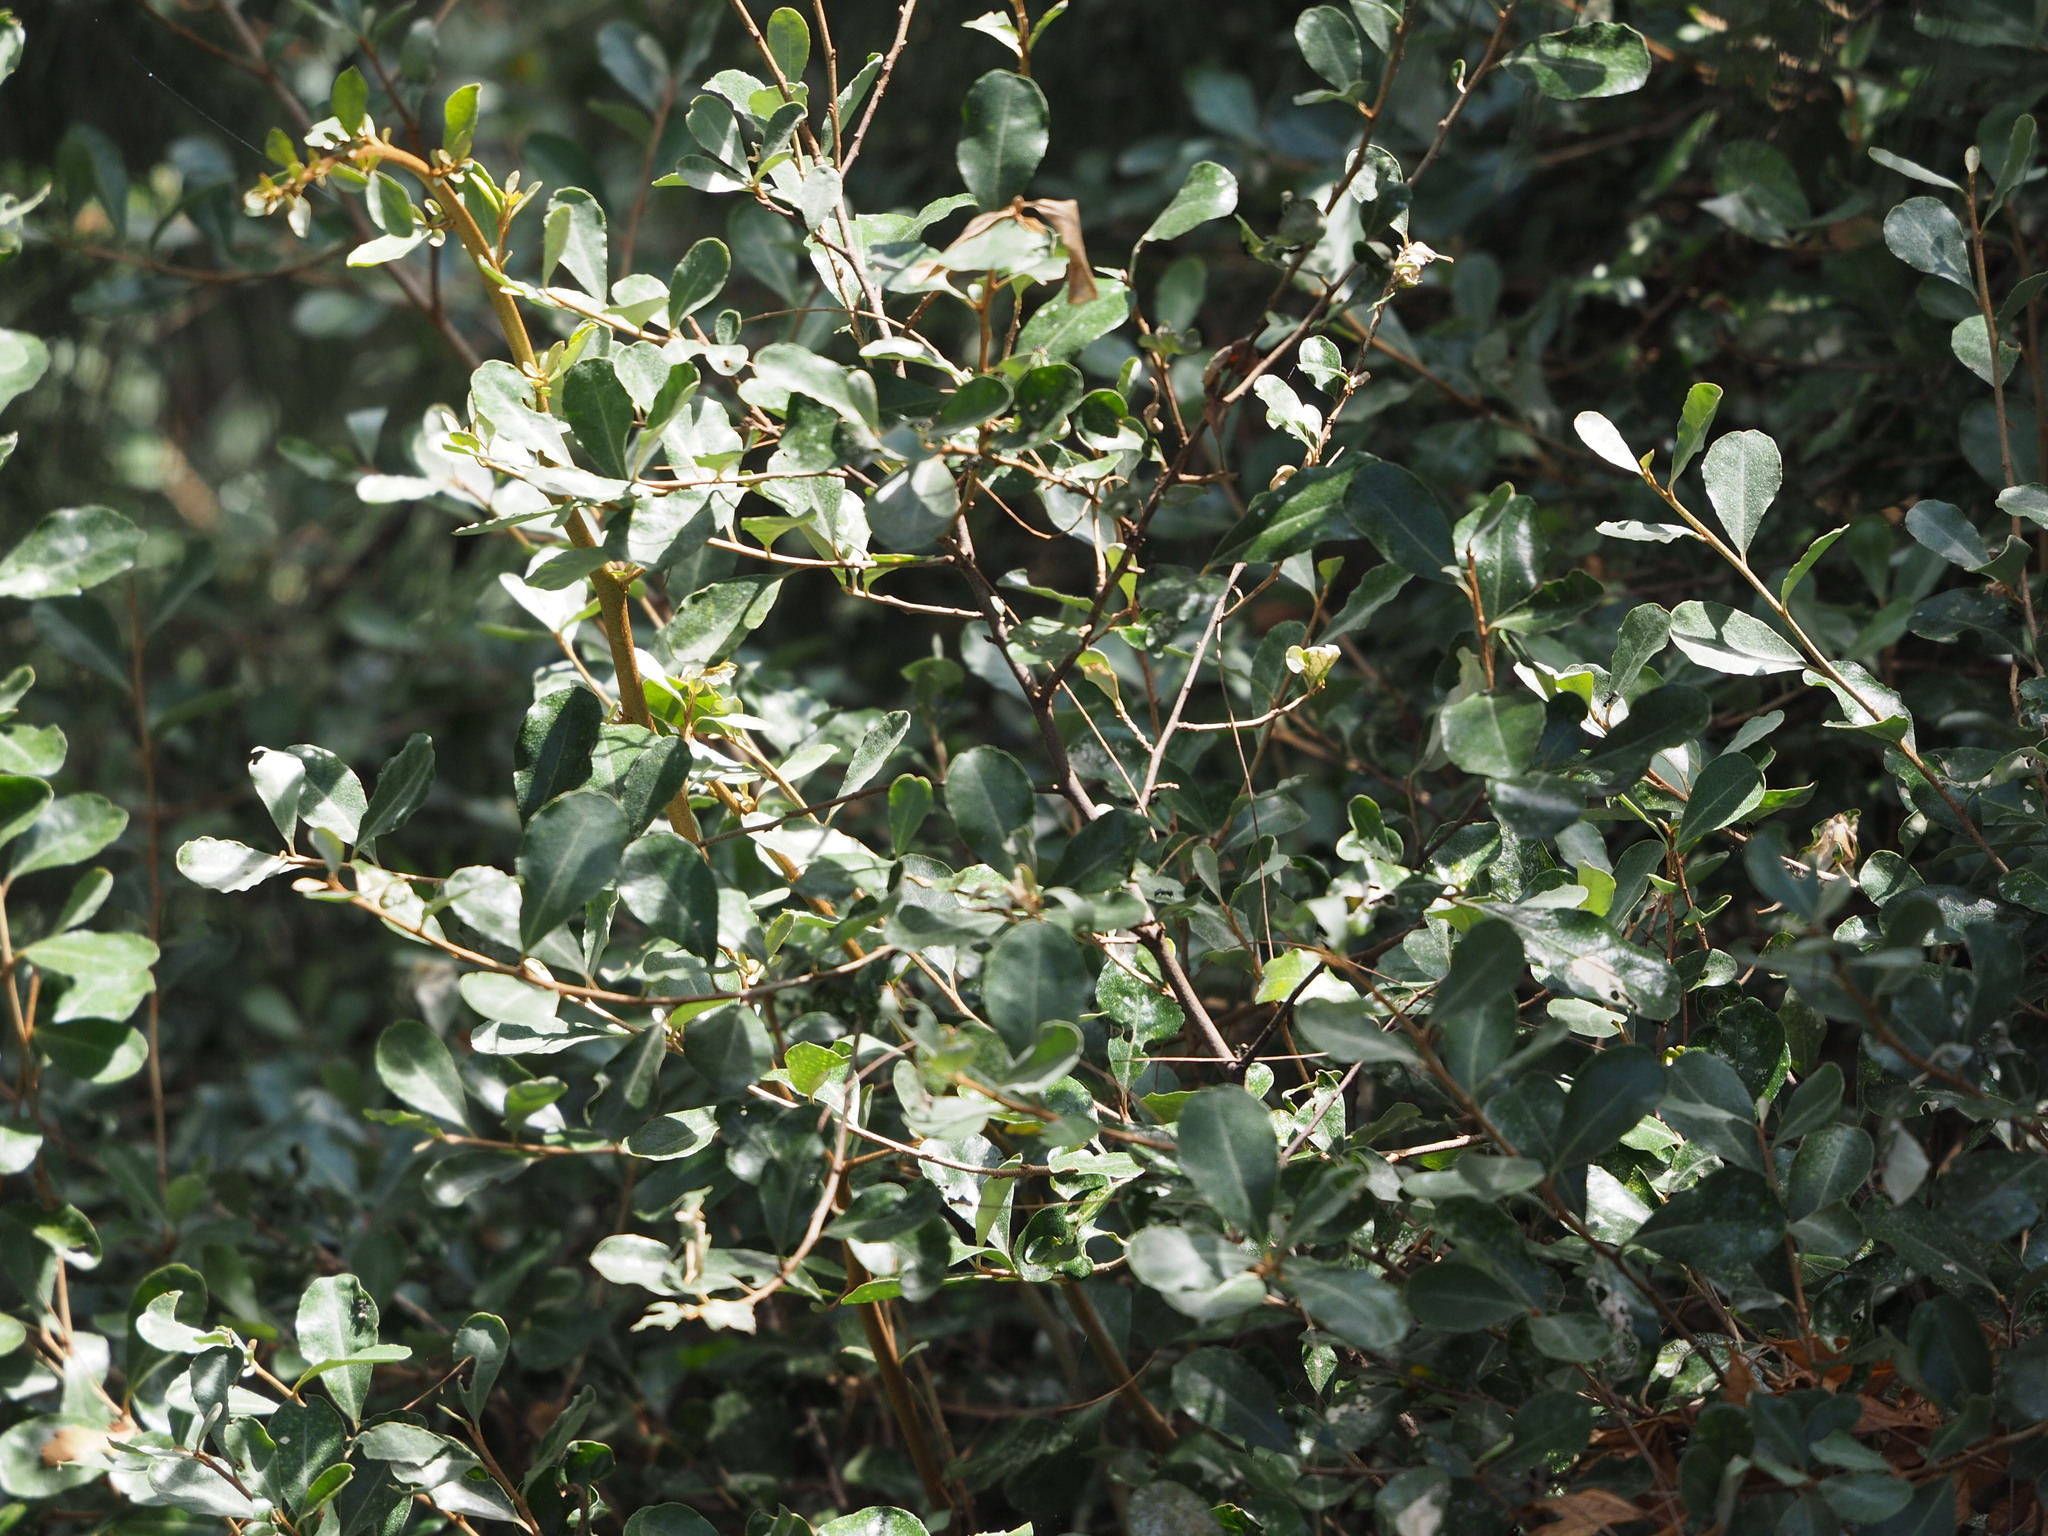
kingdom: Plantae
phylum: Tracheophyta
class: Magnoliopsida
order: Rosales
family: Elaeagnaceae
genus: Elaeagnus
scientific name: Elaeagnus oldhamii
